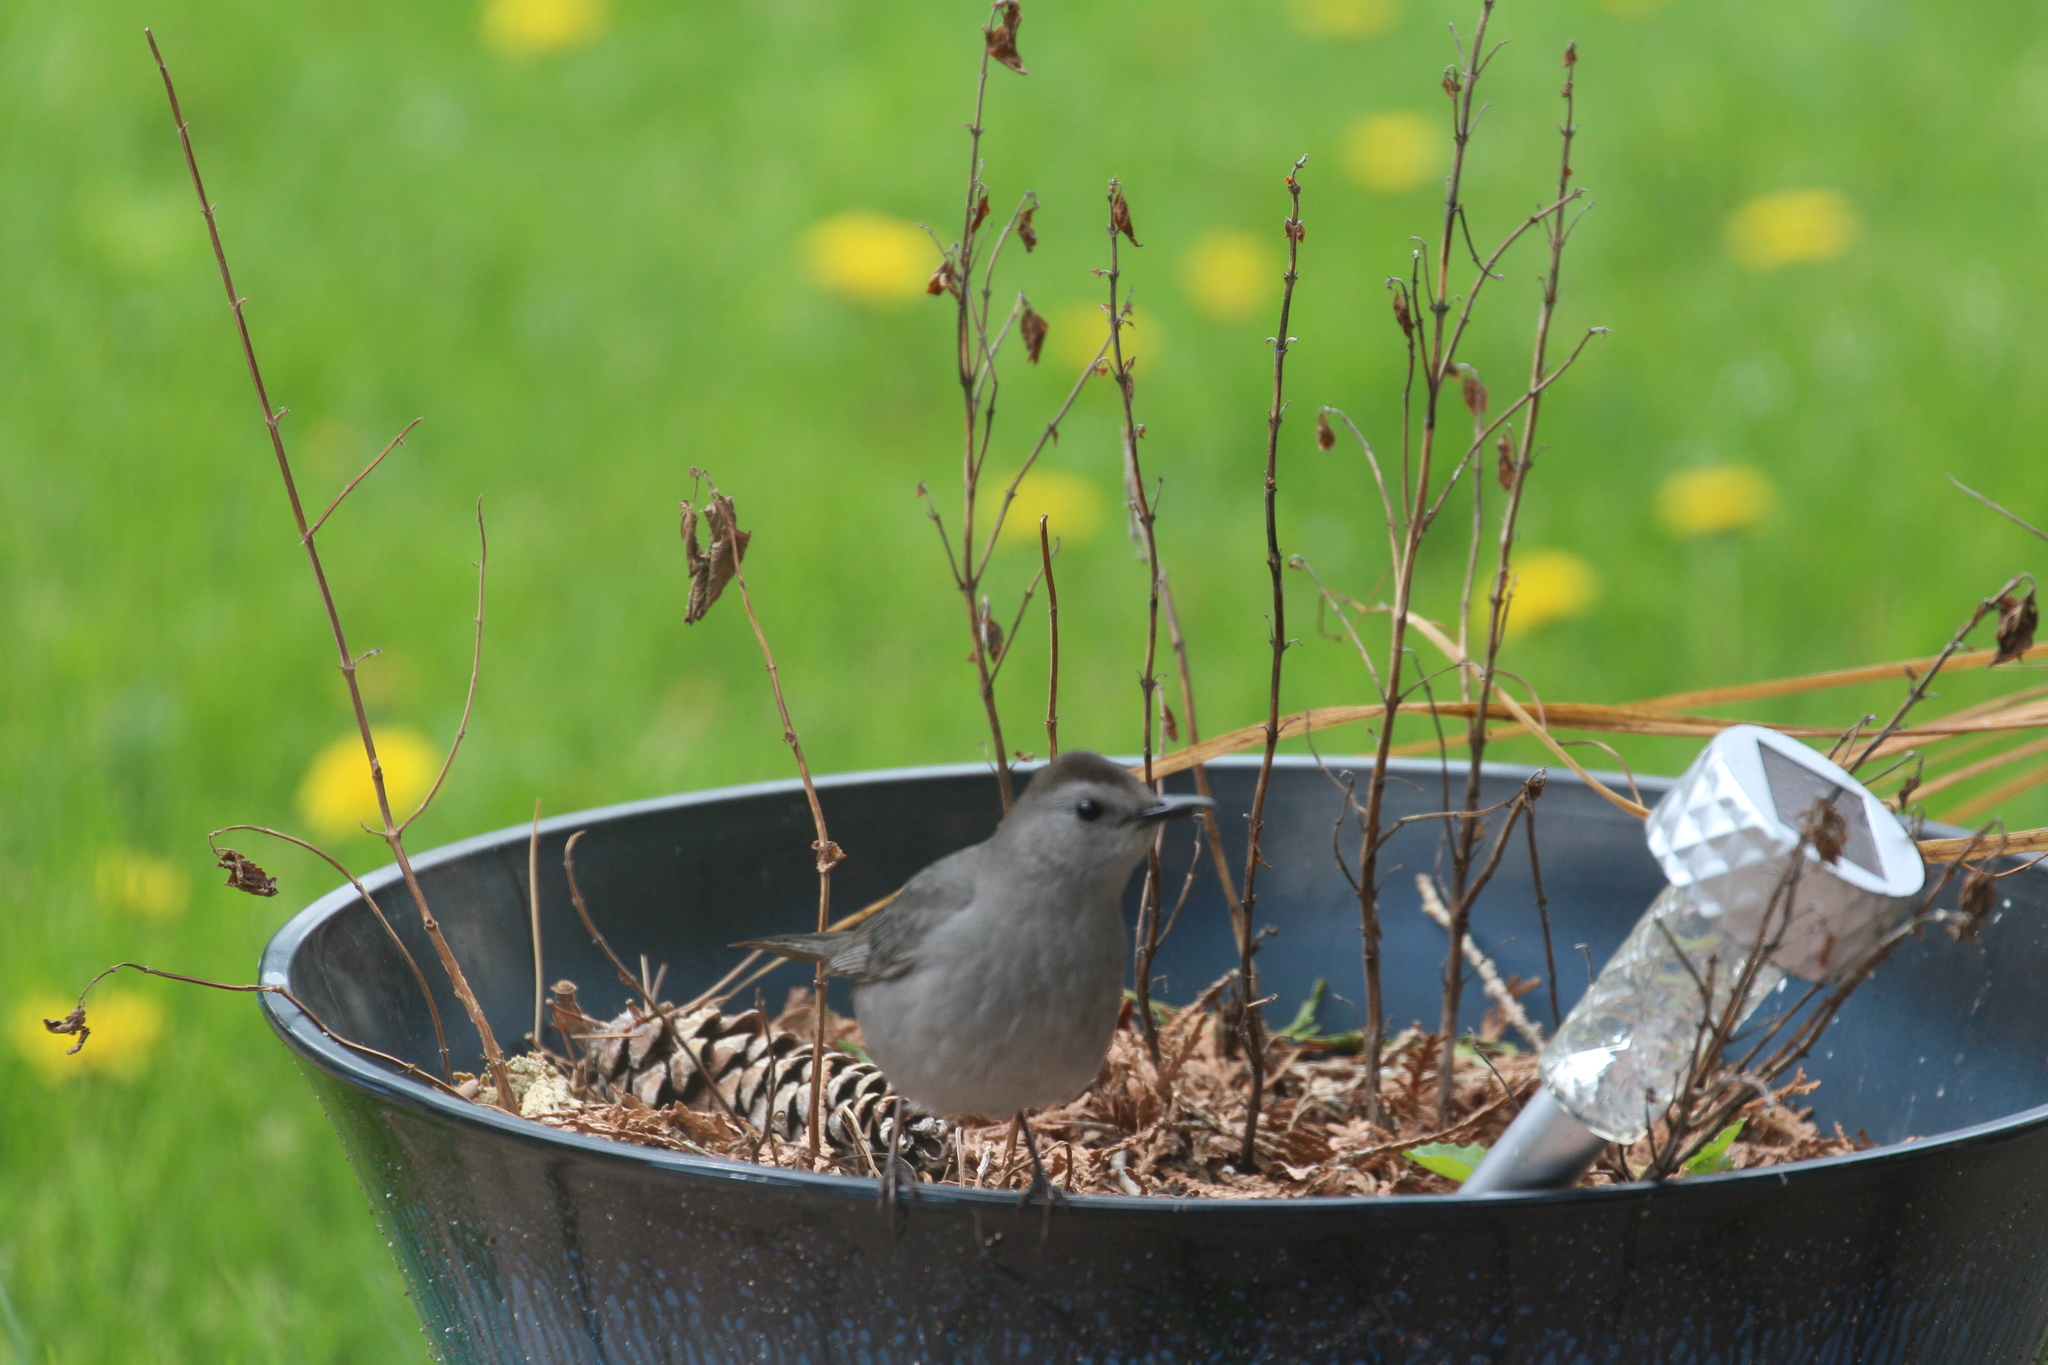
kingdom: Animalia
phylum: Chordata
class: Aves
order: Passeriformes
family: Mimidae
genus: Dumetella
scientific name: Dumetella carolinensis
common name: Gray catbird
